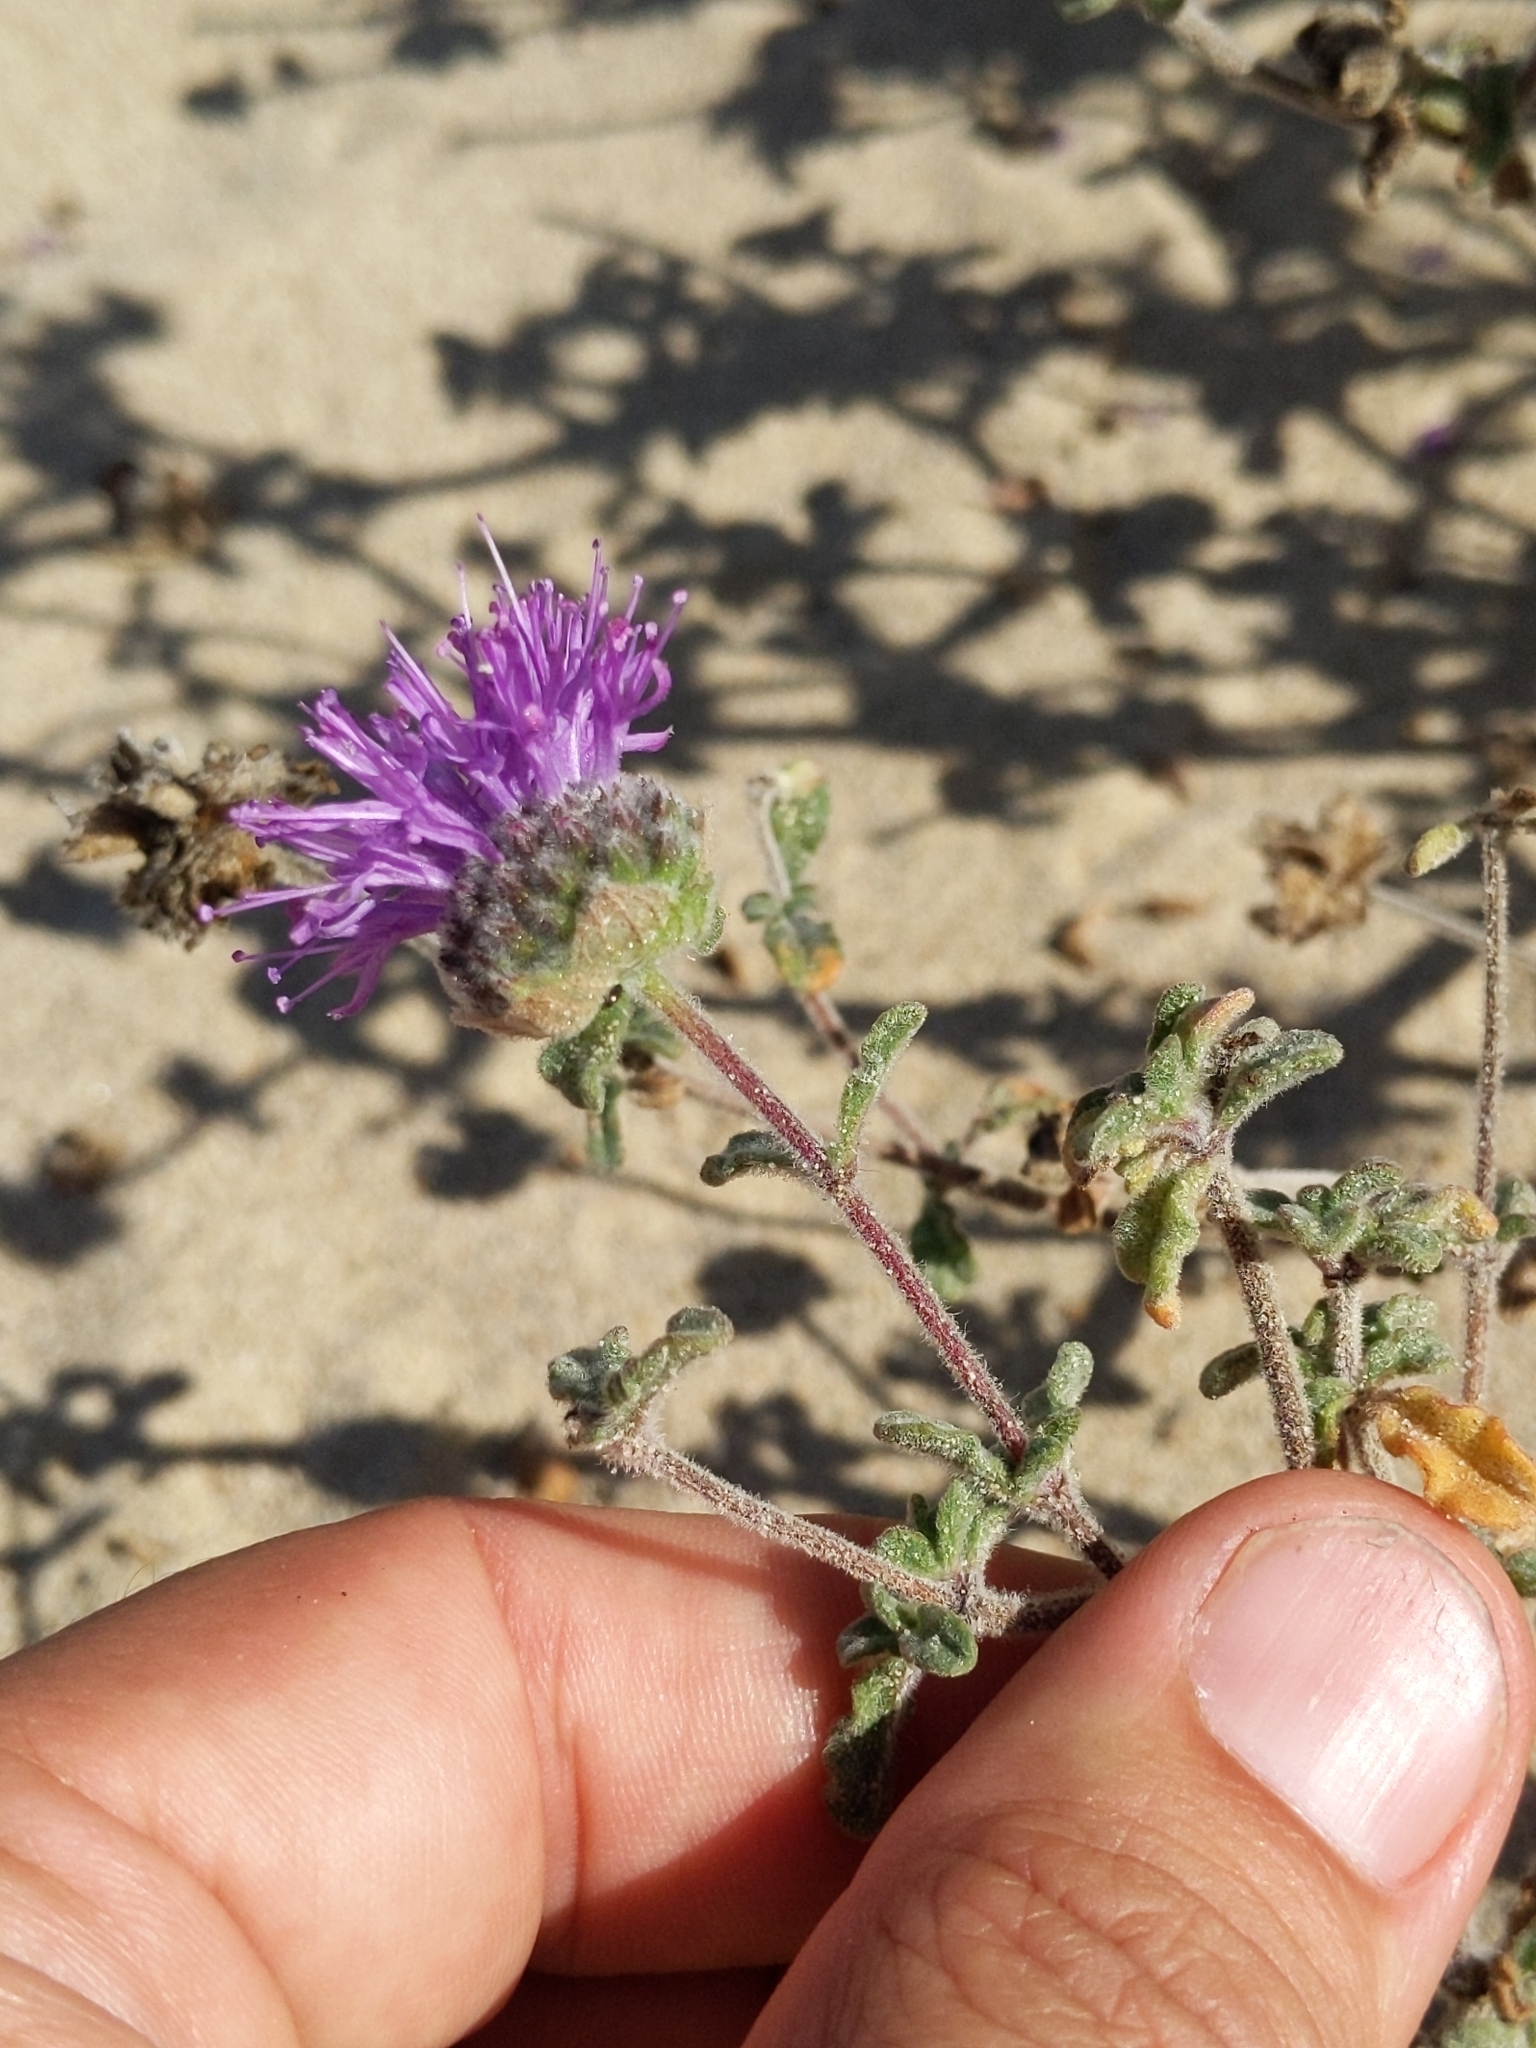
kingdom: Plantae
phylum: Tracheophyta
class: Magnoliopsida
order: Lamiales
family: Lamiaceae
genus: Monardella
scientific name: Monardella undulata
